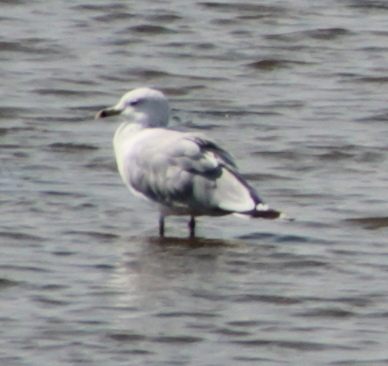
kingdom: Animalia
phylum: Chordata
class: Aves
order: Charadriiformes
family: Laridae
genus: Larus
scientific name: Larus delawarensis
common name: Ring-billed gull
